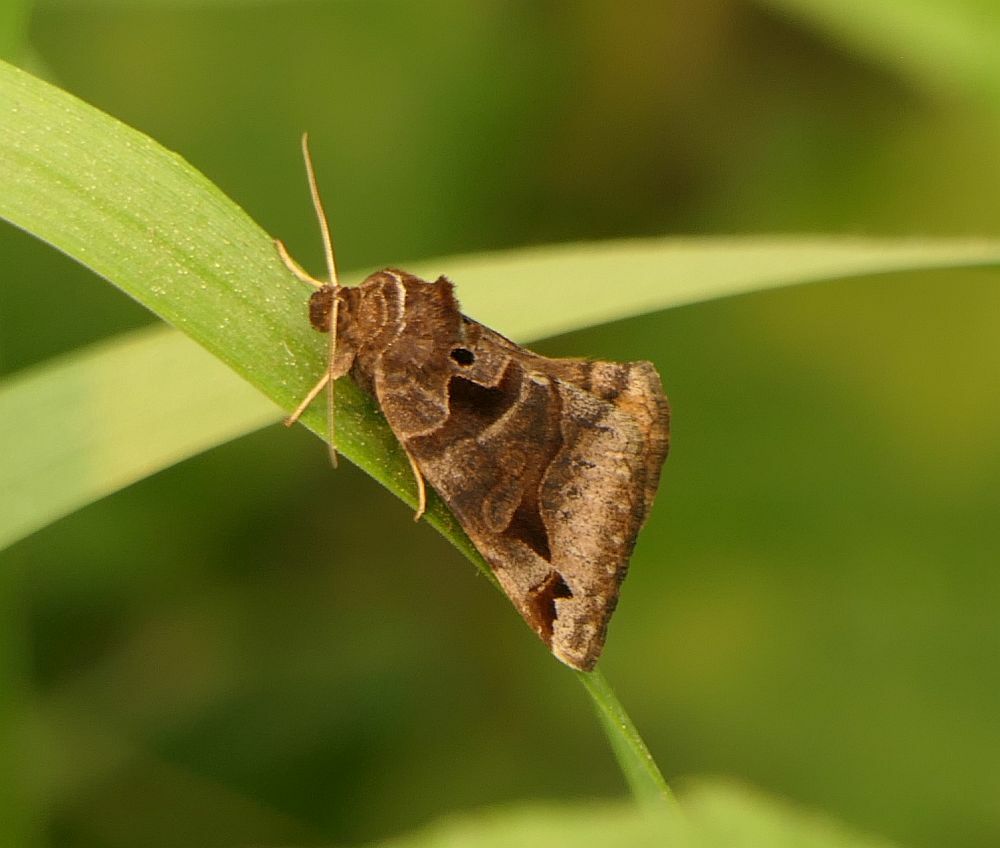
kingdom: Animalia
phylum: Arthropoda
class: Insecta
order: Lepidoptera
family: Erebidae
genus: Euclidia
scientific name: Euclidia cuspidea
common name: Toothed somberwing
